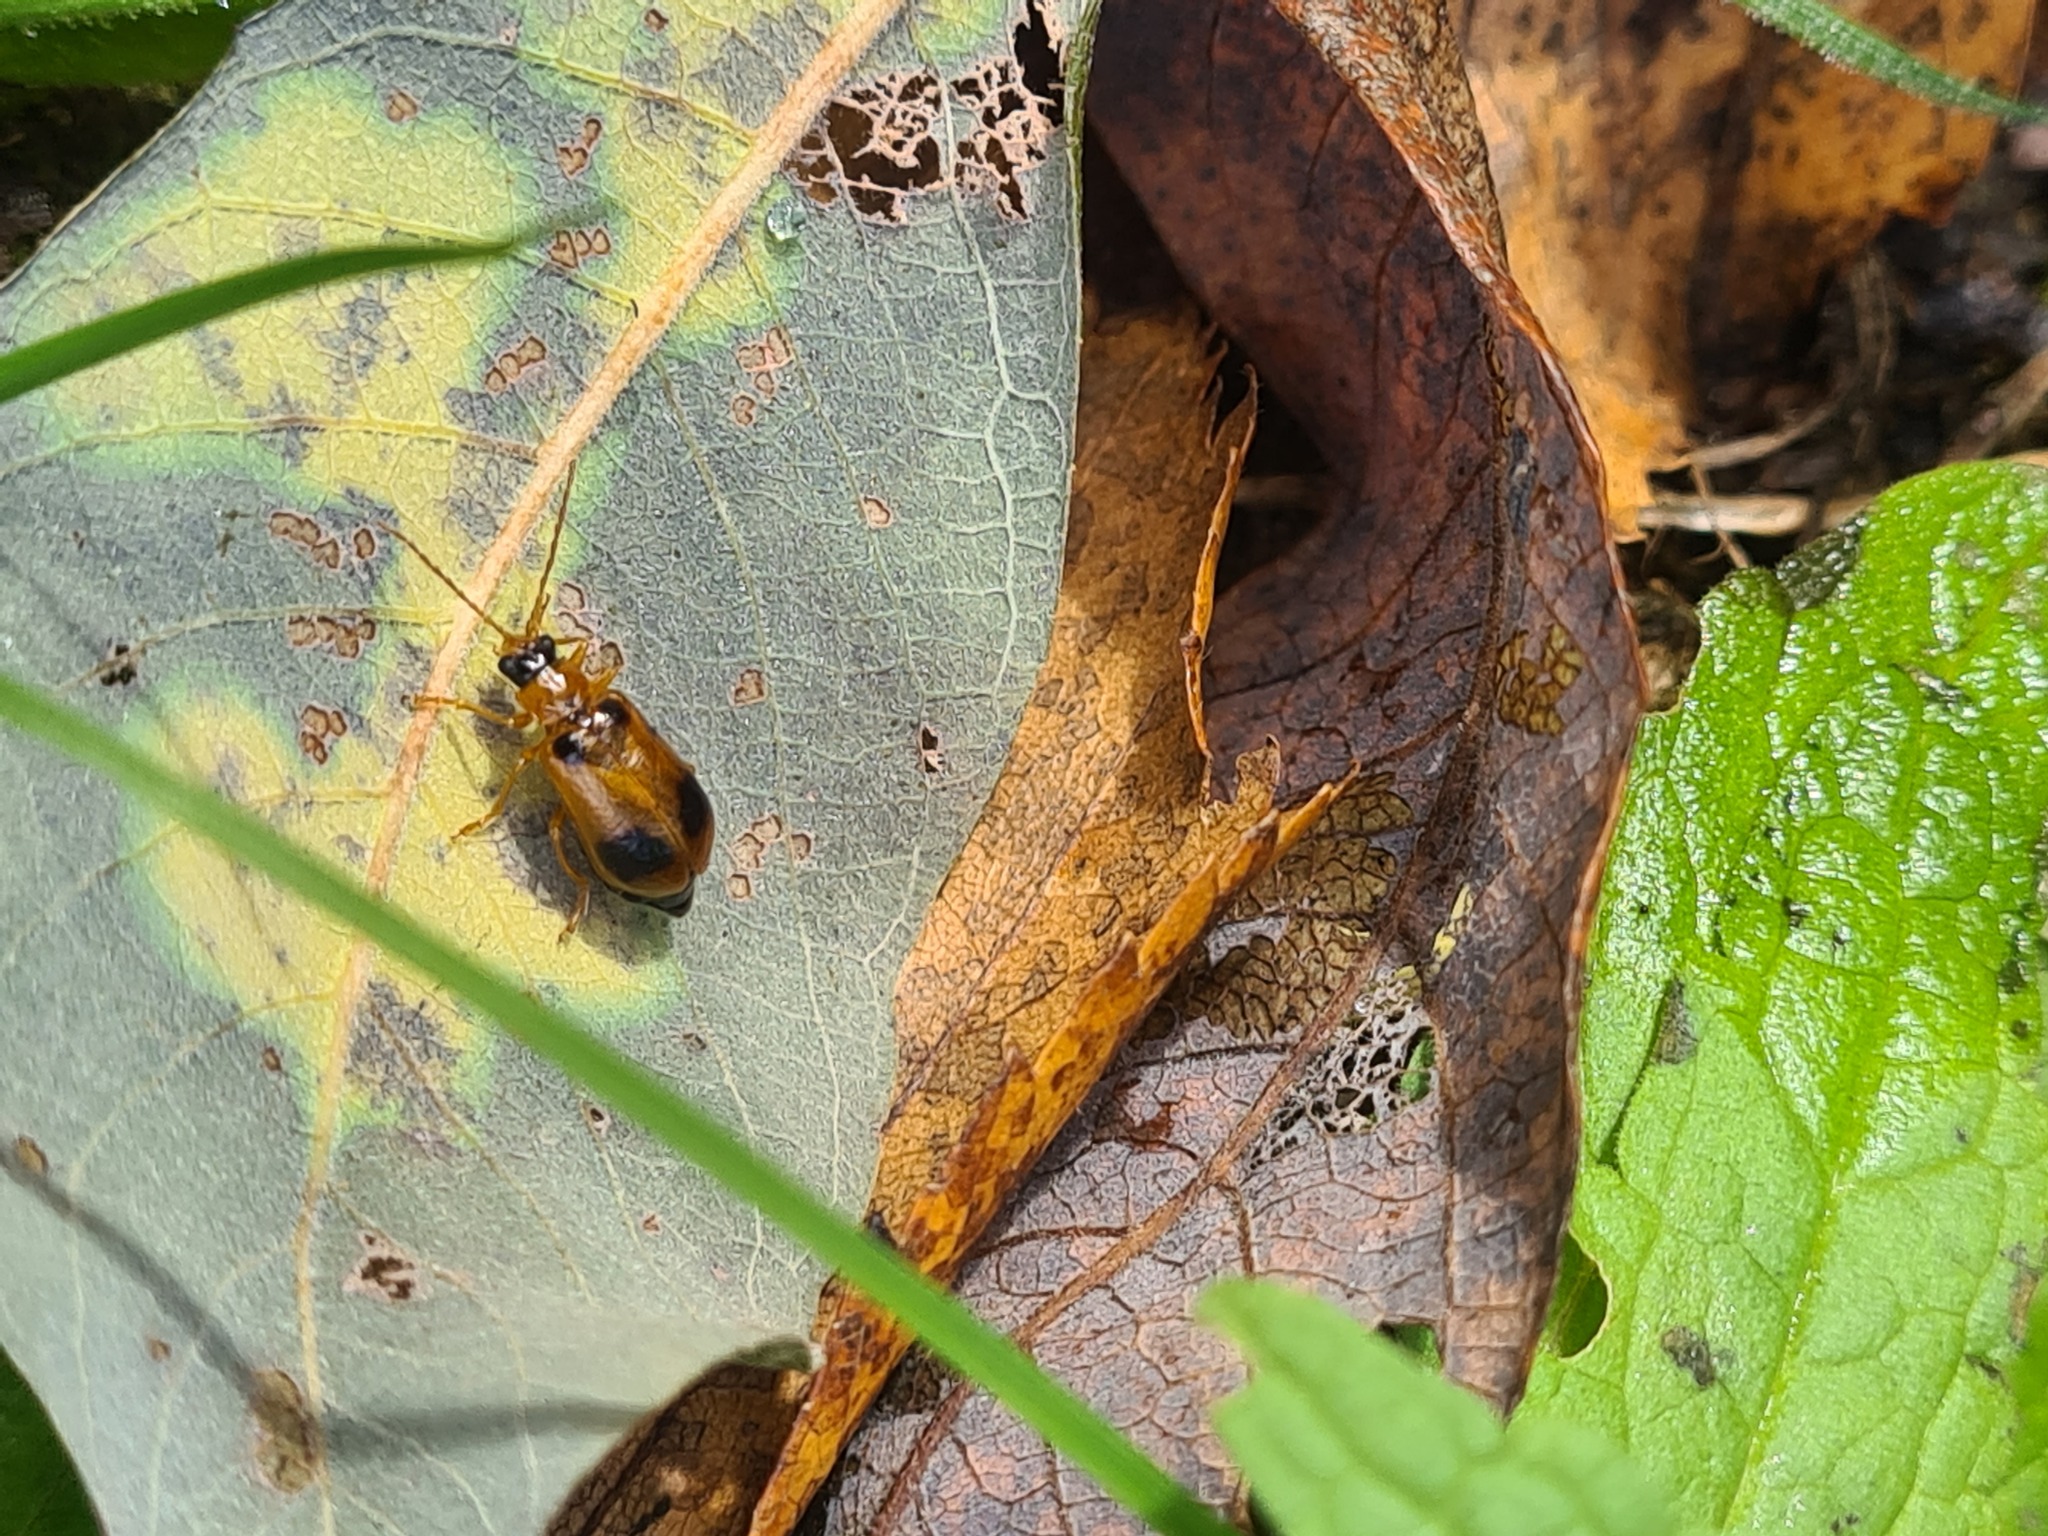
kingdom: Animalia
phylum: Arthropoda
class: Insecta
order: Coleoptera
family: Chrysomelidae
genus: Phyllobrotica
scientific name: Phyllobrotica quadrimaculata
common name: Skullcap leaf beetle
